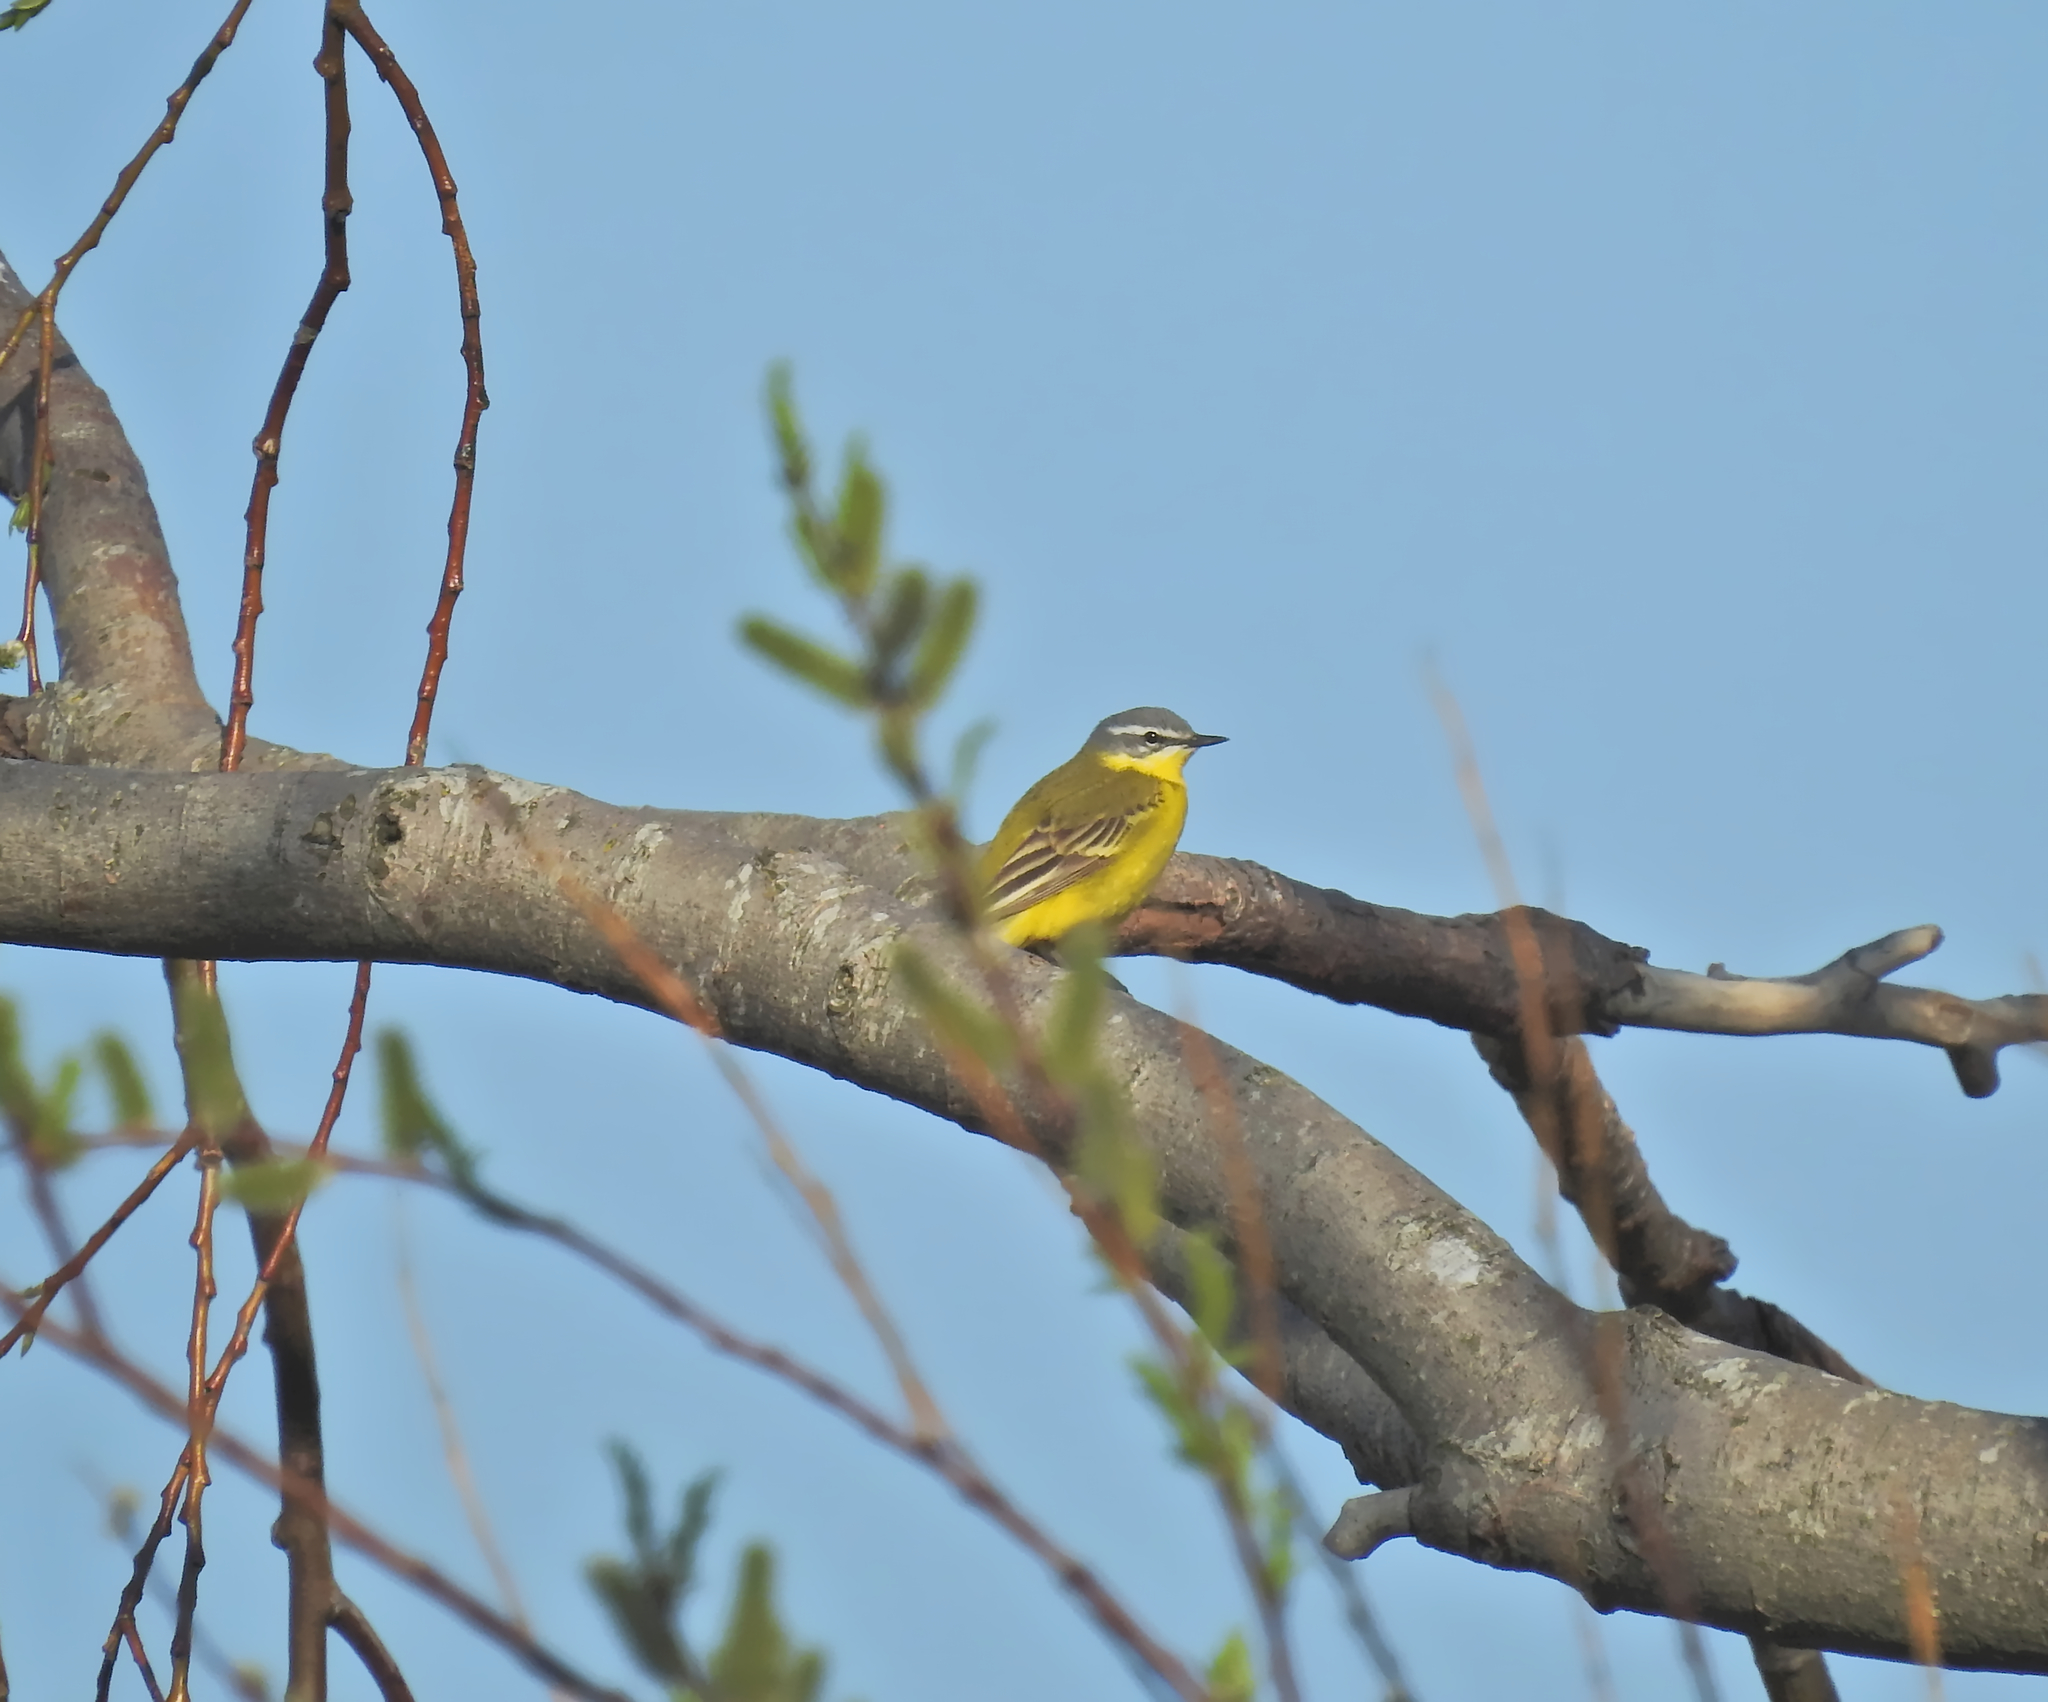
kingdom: Animalia
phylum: Chordata
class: Aves
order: Passeriformes
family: Motacillidae
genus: Motacilla
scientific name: Motacilla flava
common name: Western yellow wagtail
